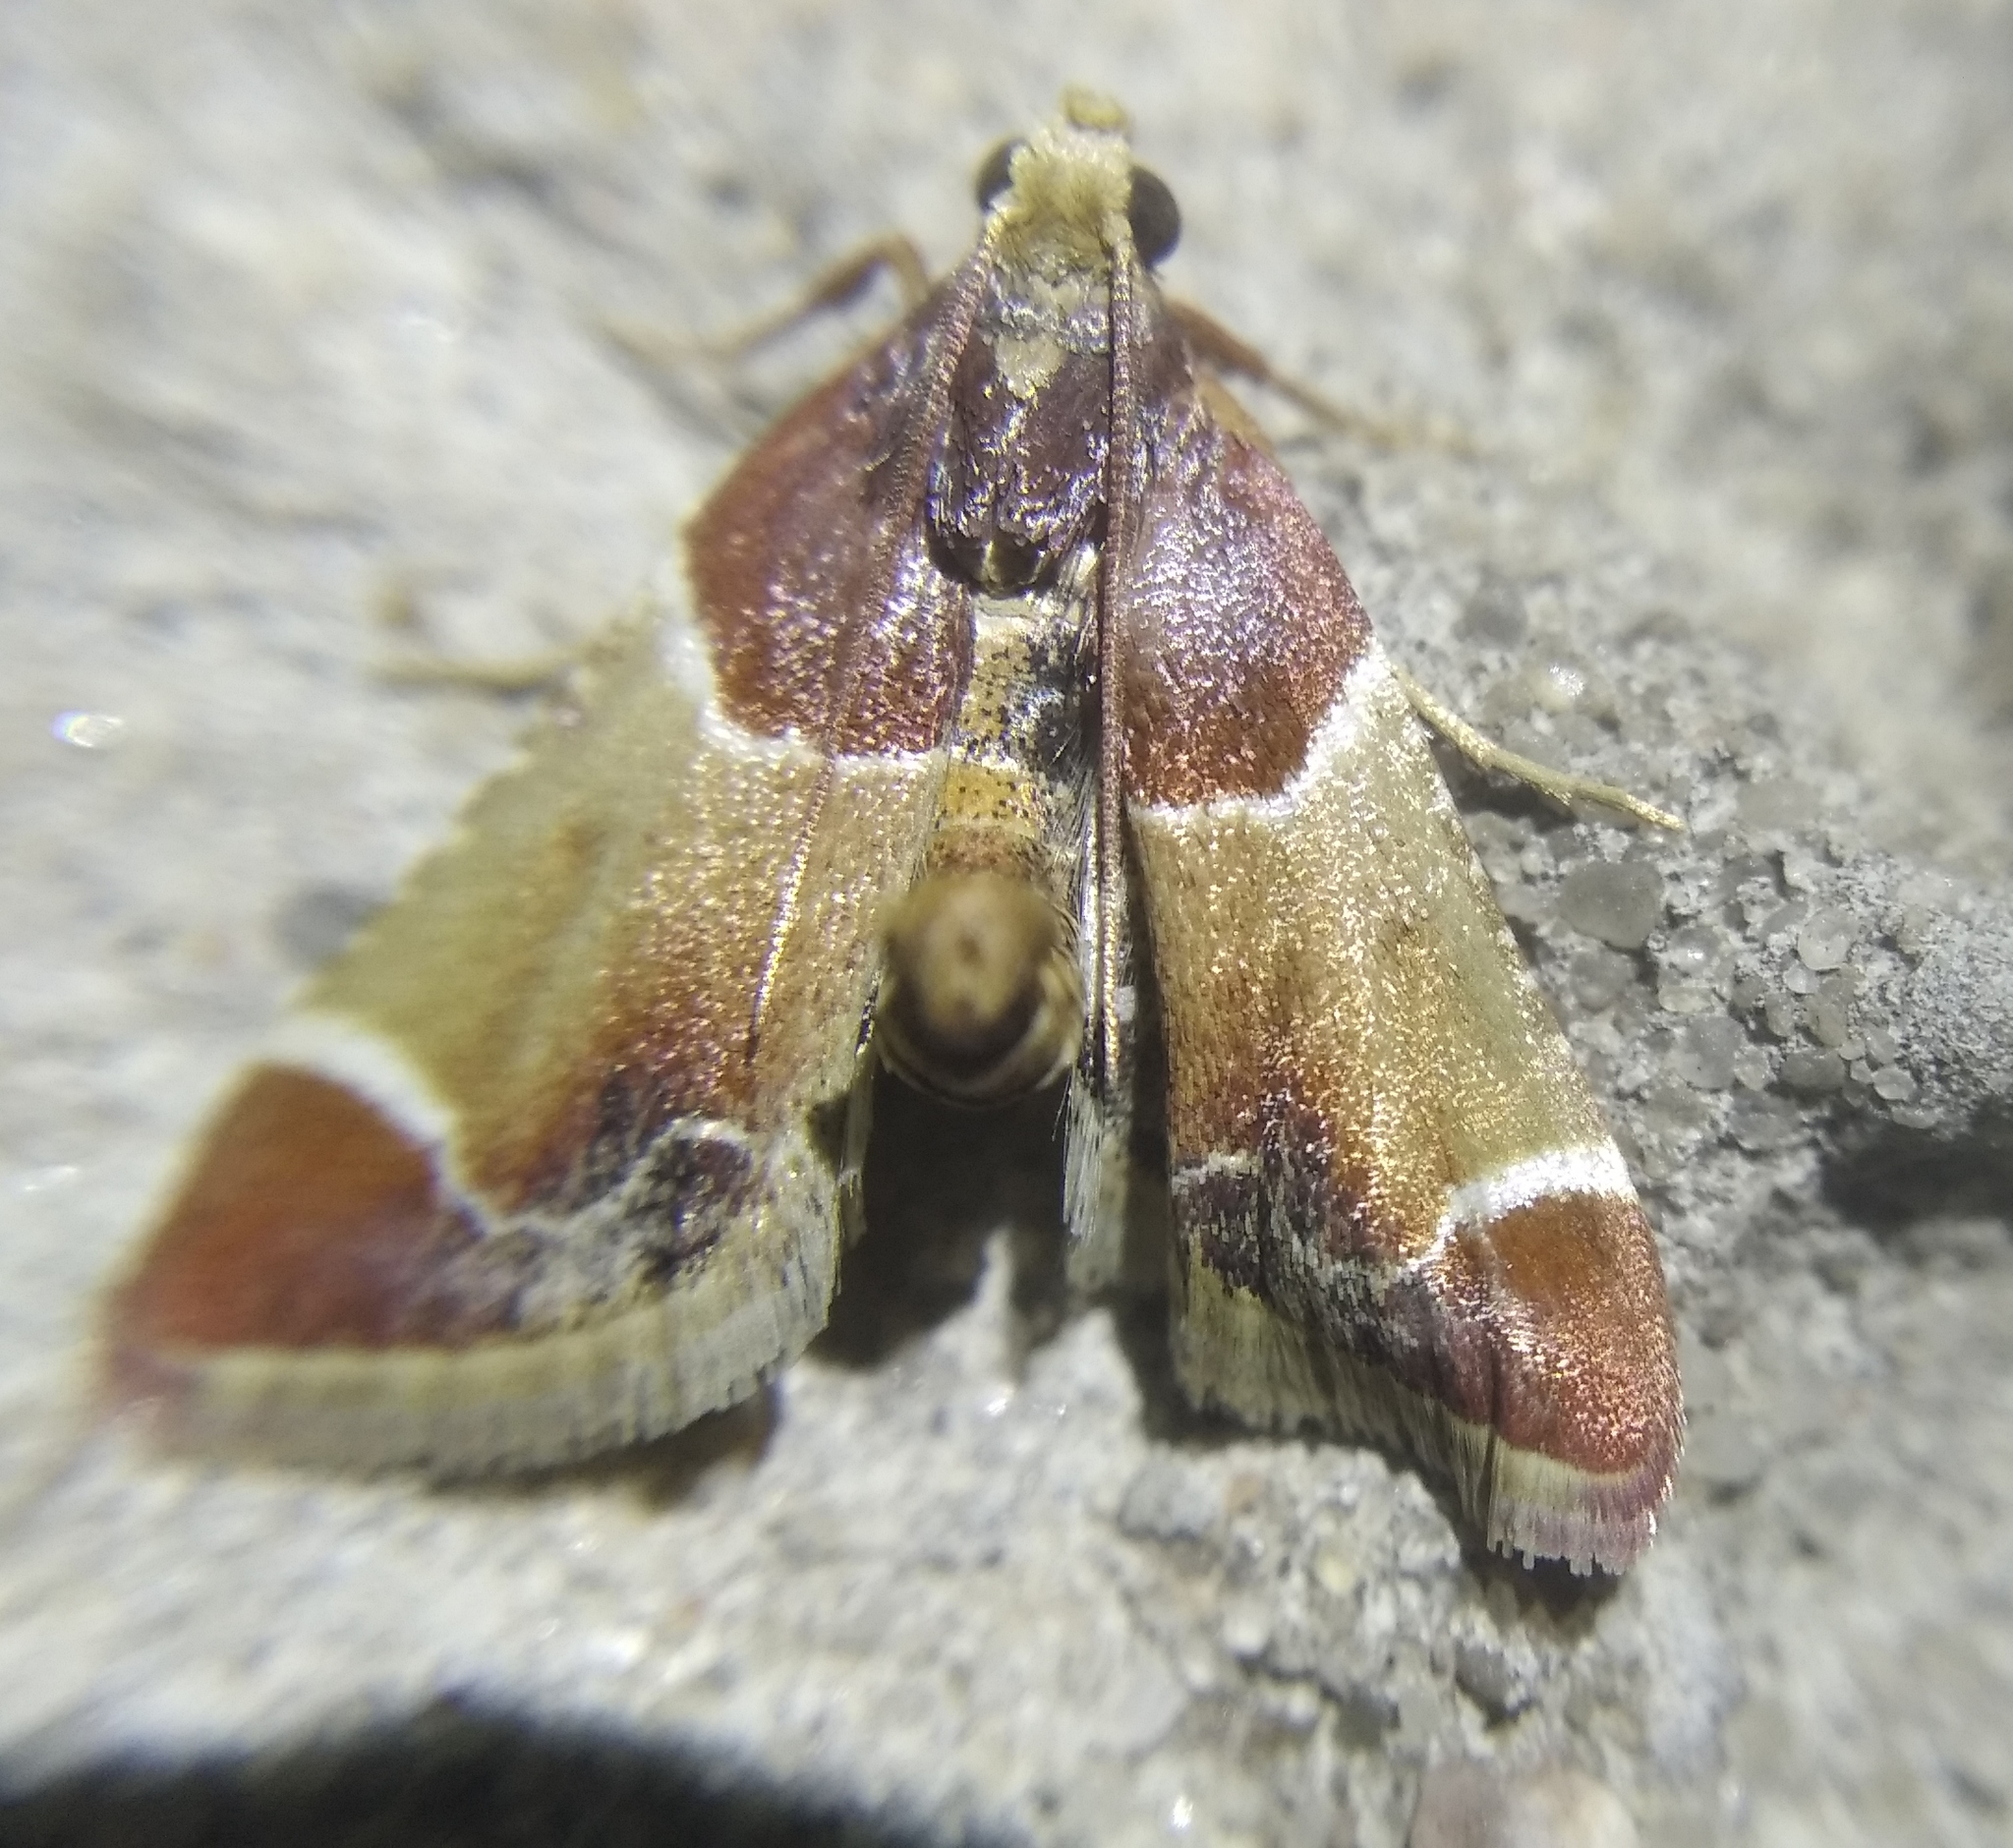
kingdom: Animalia
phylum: Arthropoda
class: Insecta
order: Lepidoptera
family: Pyralidae
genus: Pyralis
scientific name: Pyralis farinalis
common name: Meal moth
